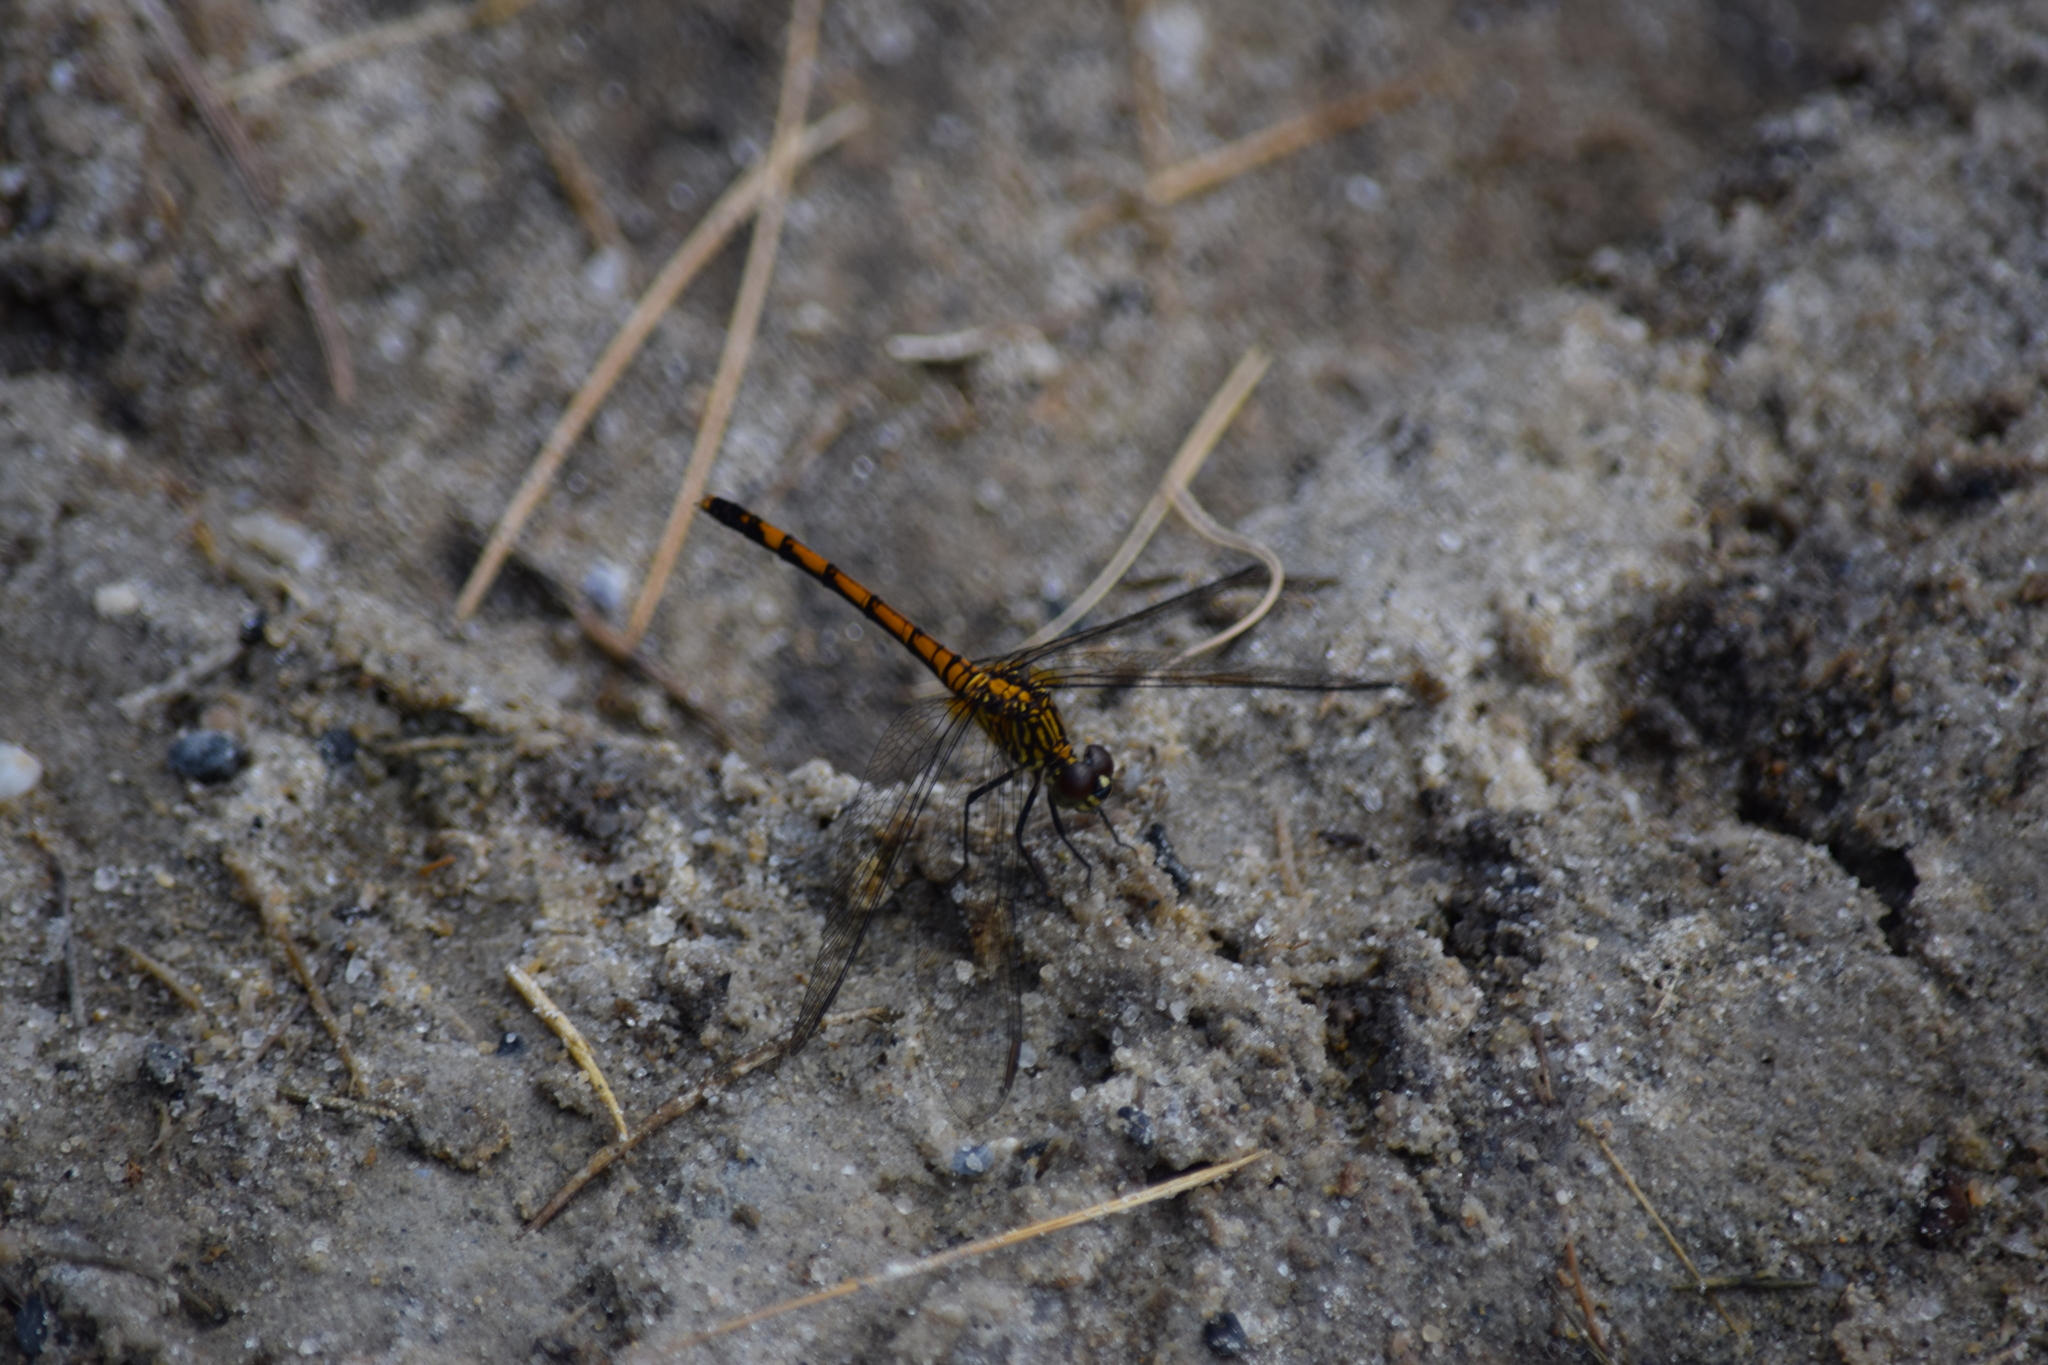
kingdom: Animalia
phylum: Arthropoda
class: Insecta
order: Odonata
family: Libellulidae
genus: Erythrodiplax
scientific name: Erythrodiplax berenice
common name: Seaside dragonlet
